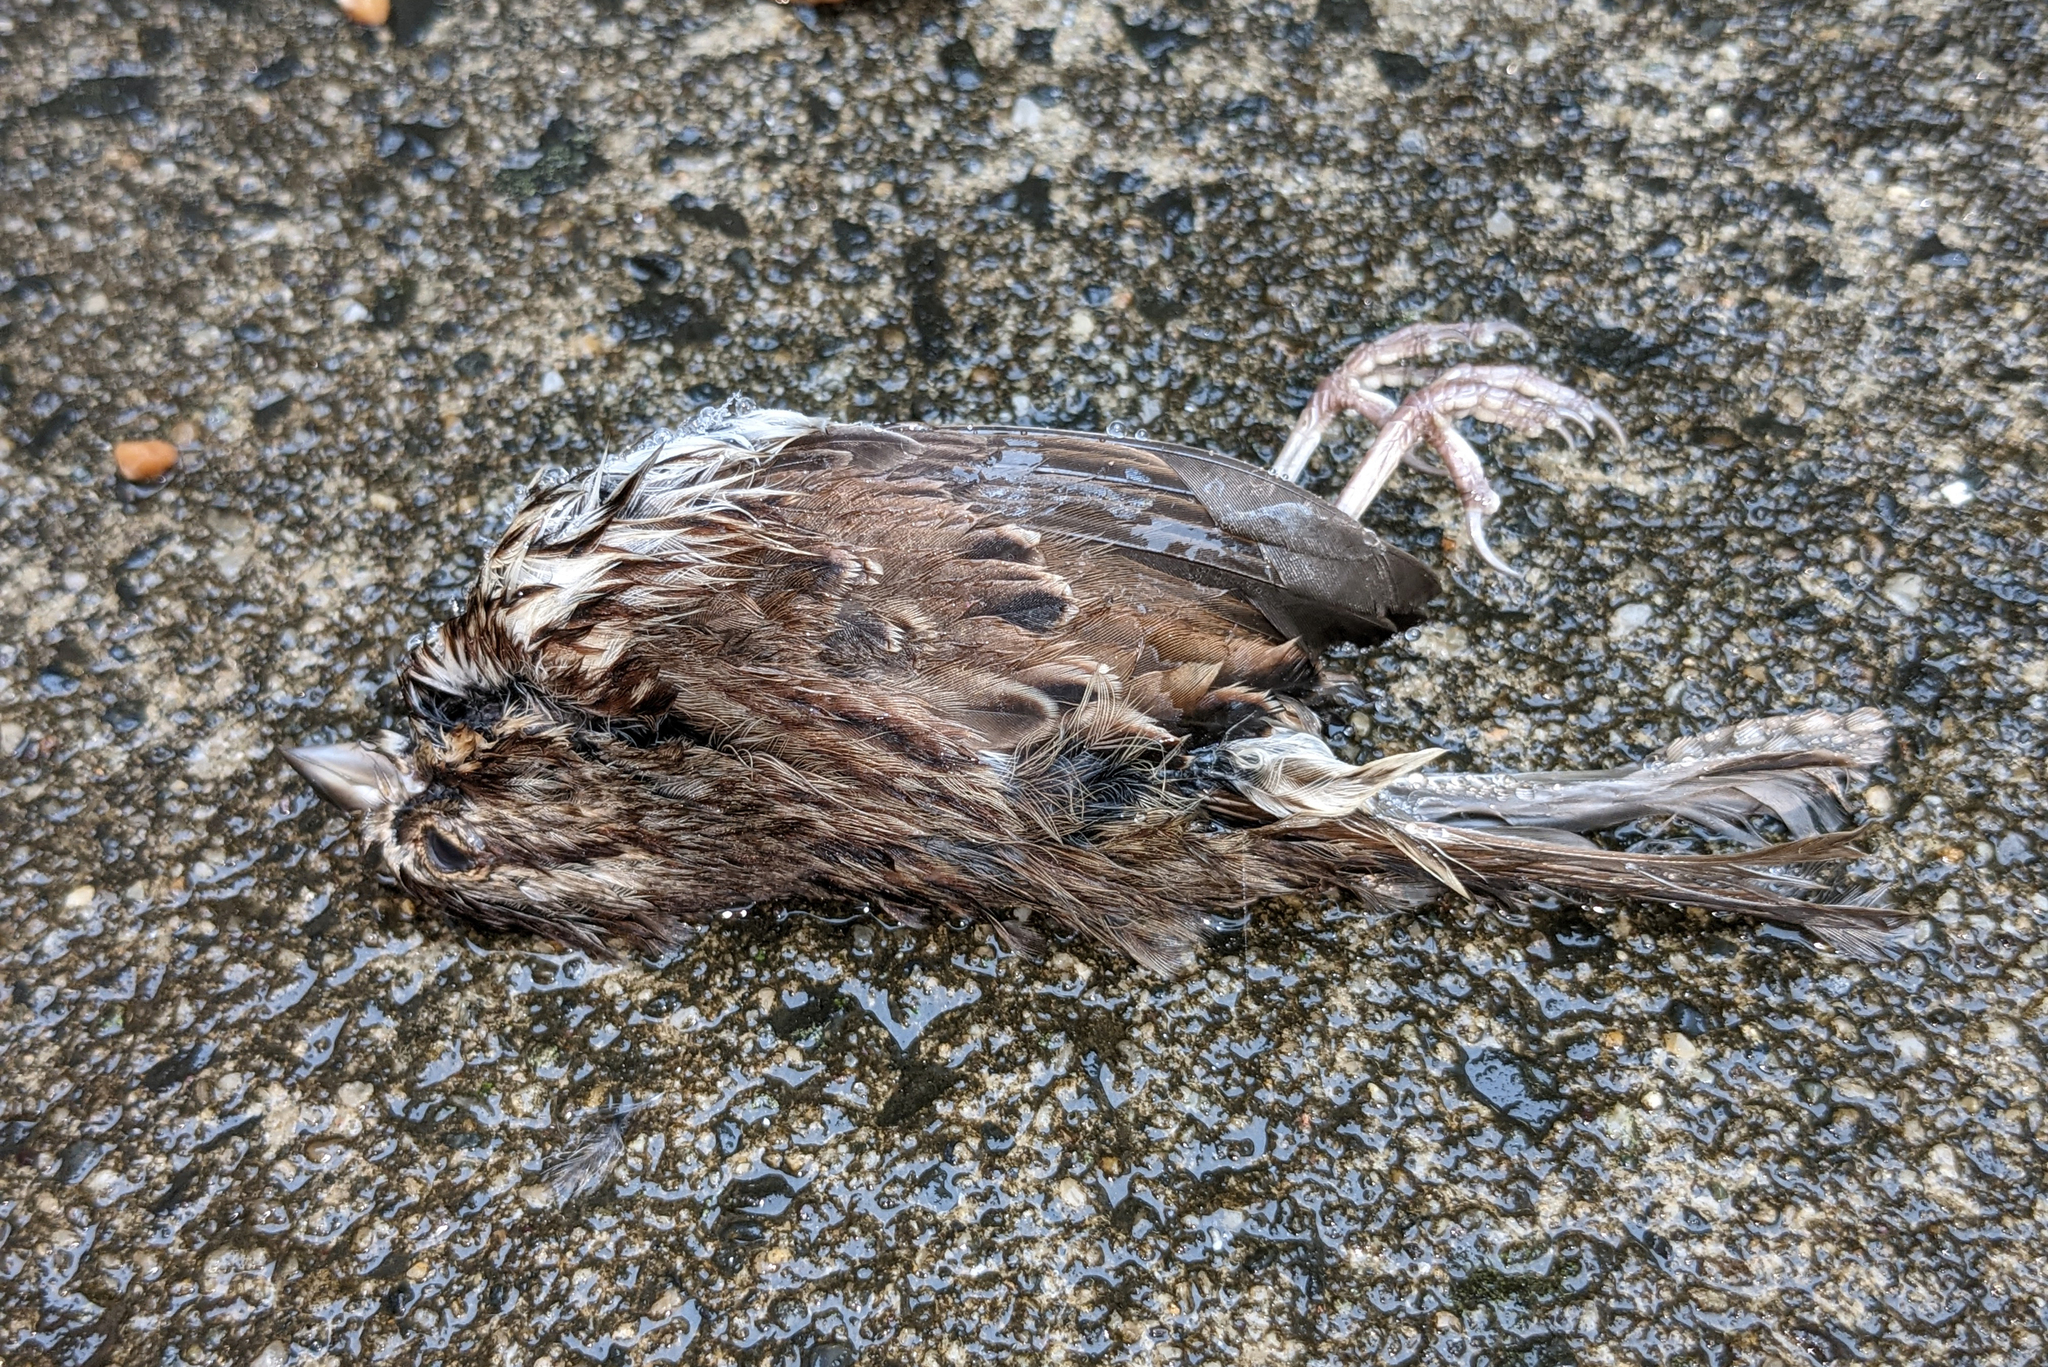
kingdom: Animalia
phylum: Chordata
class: Aves
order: Passeriformes
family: Passerellidae
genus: Melospiza
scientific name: Melospiza melodia
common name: Song sparrow
